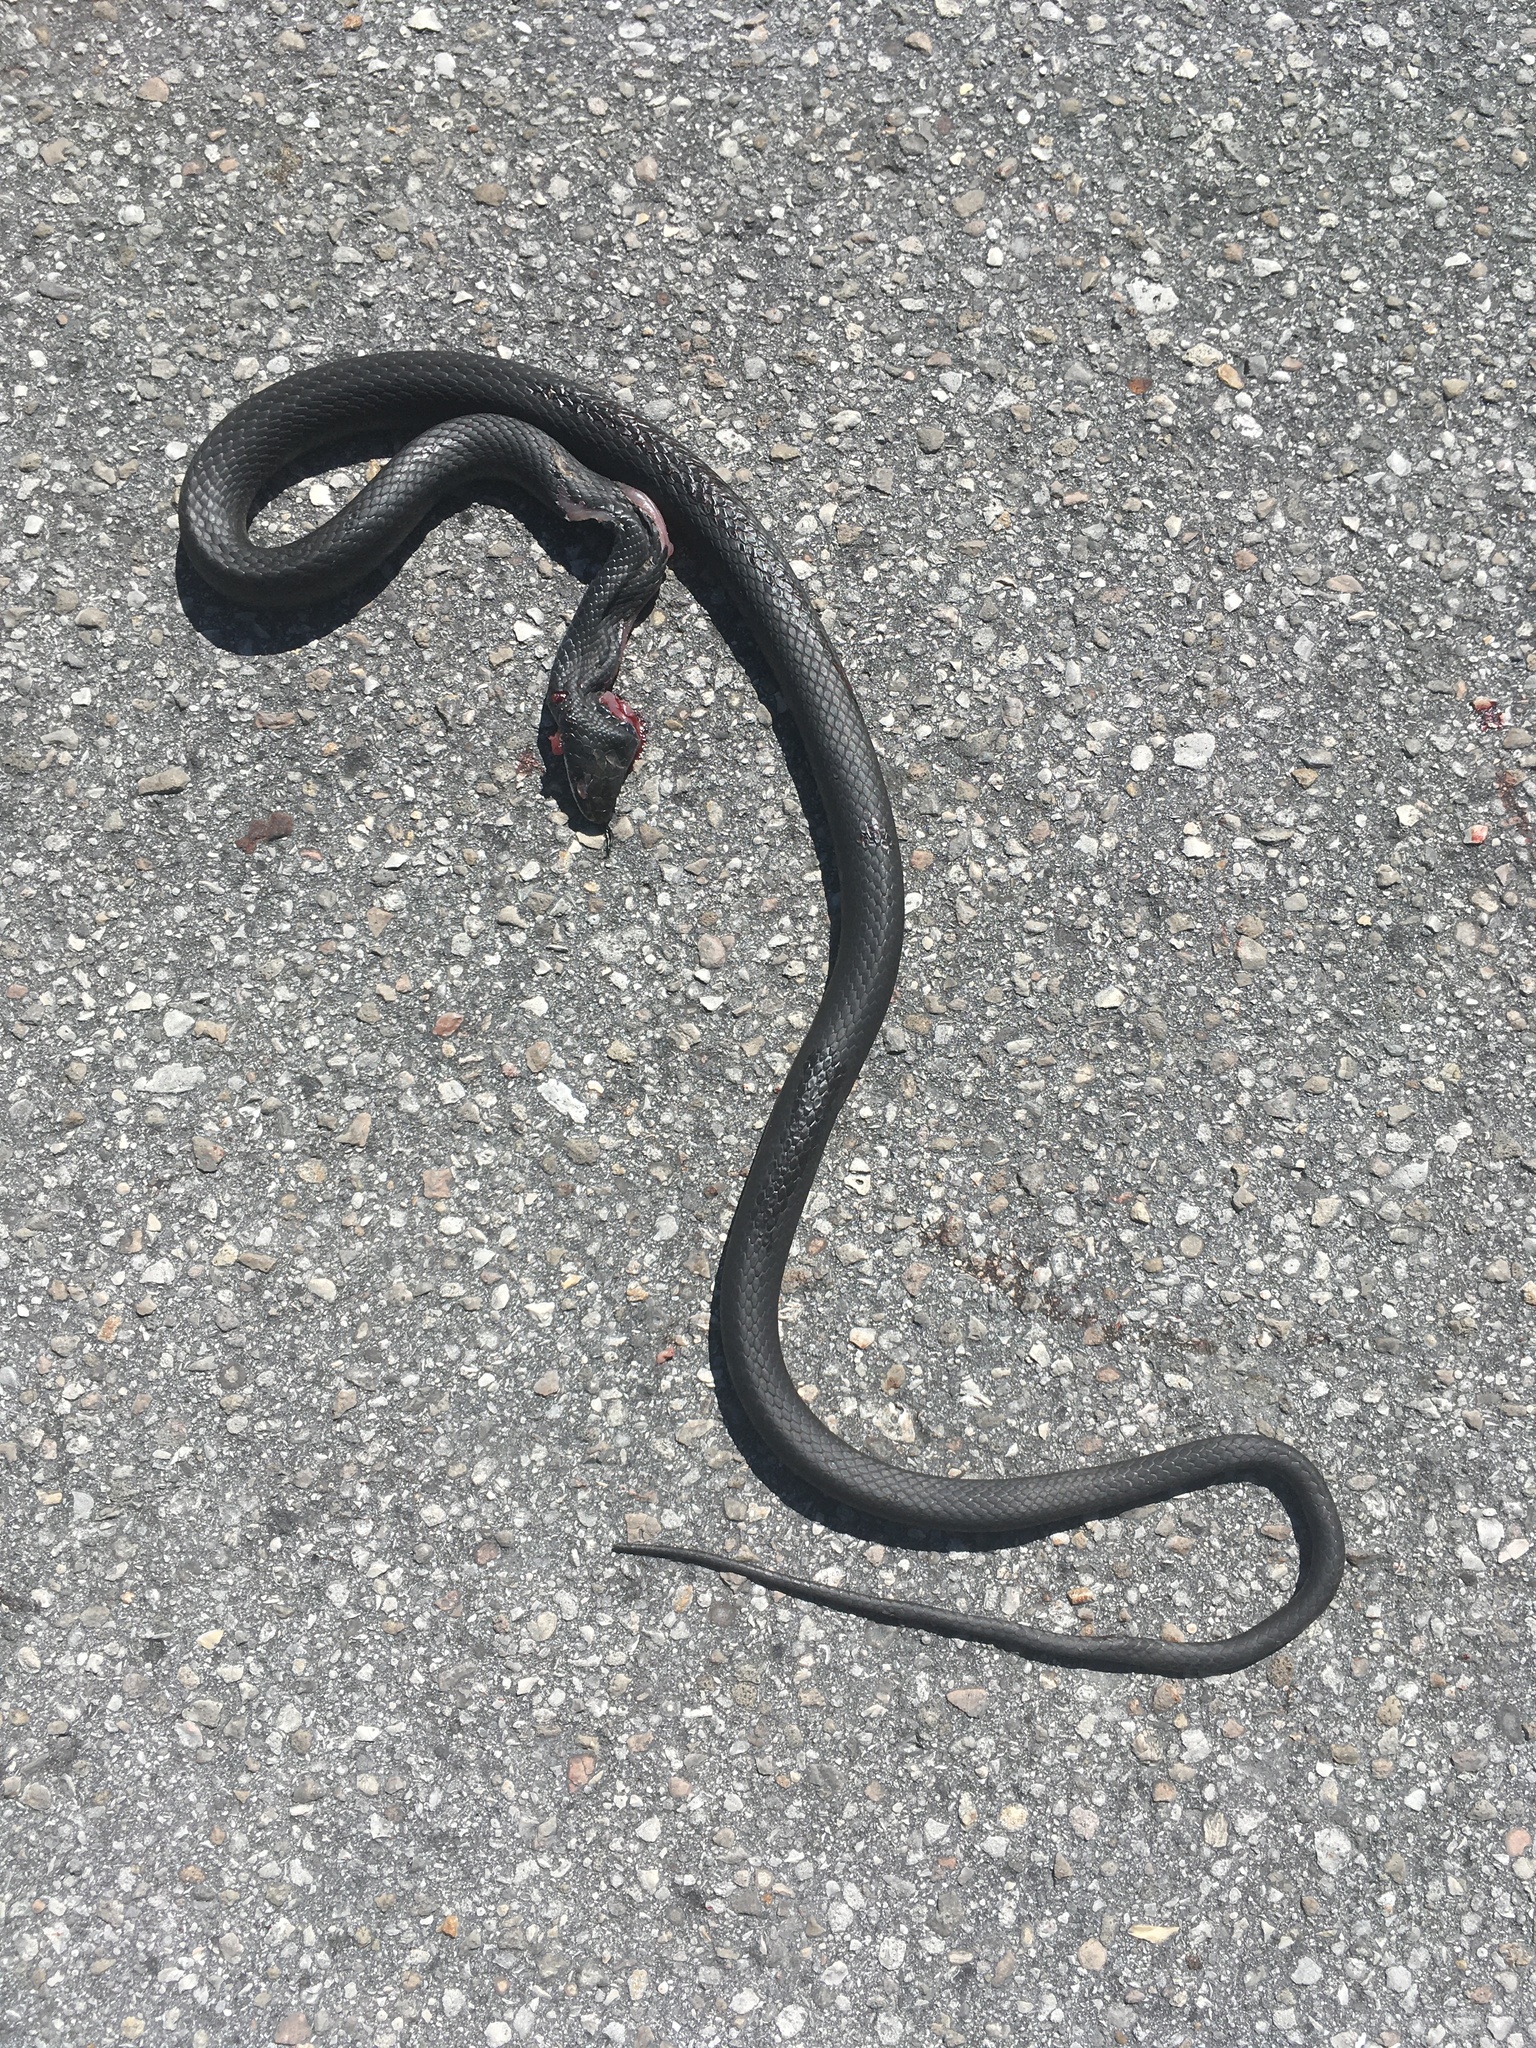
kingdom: Animalia
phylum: Chordata
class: Squamata
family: Colubridae
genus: Coluber
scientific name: Coluber constrictor
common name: Eastern racer
